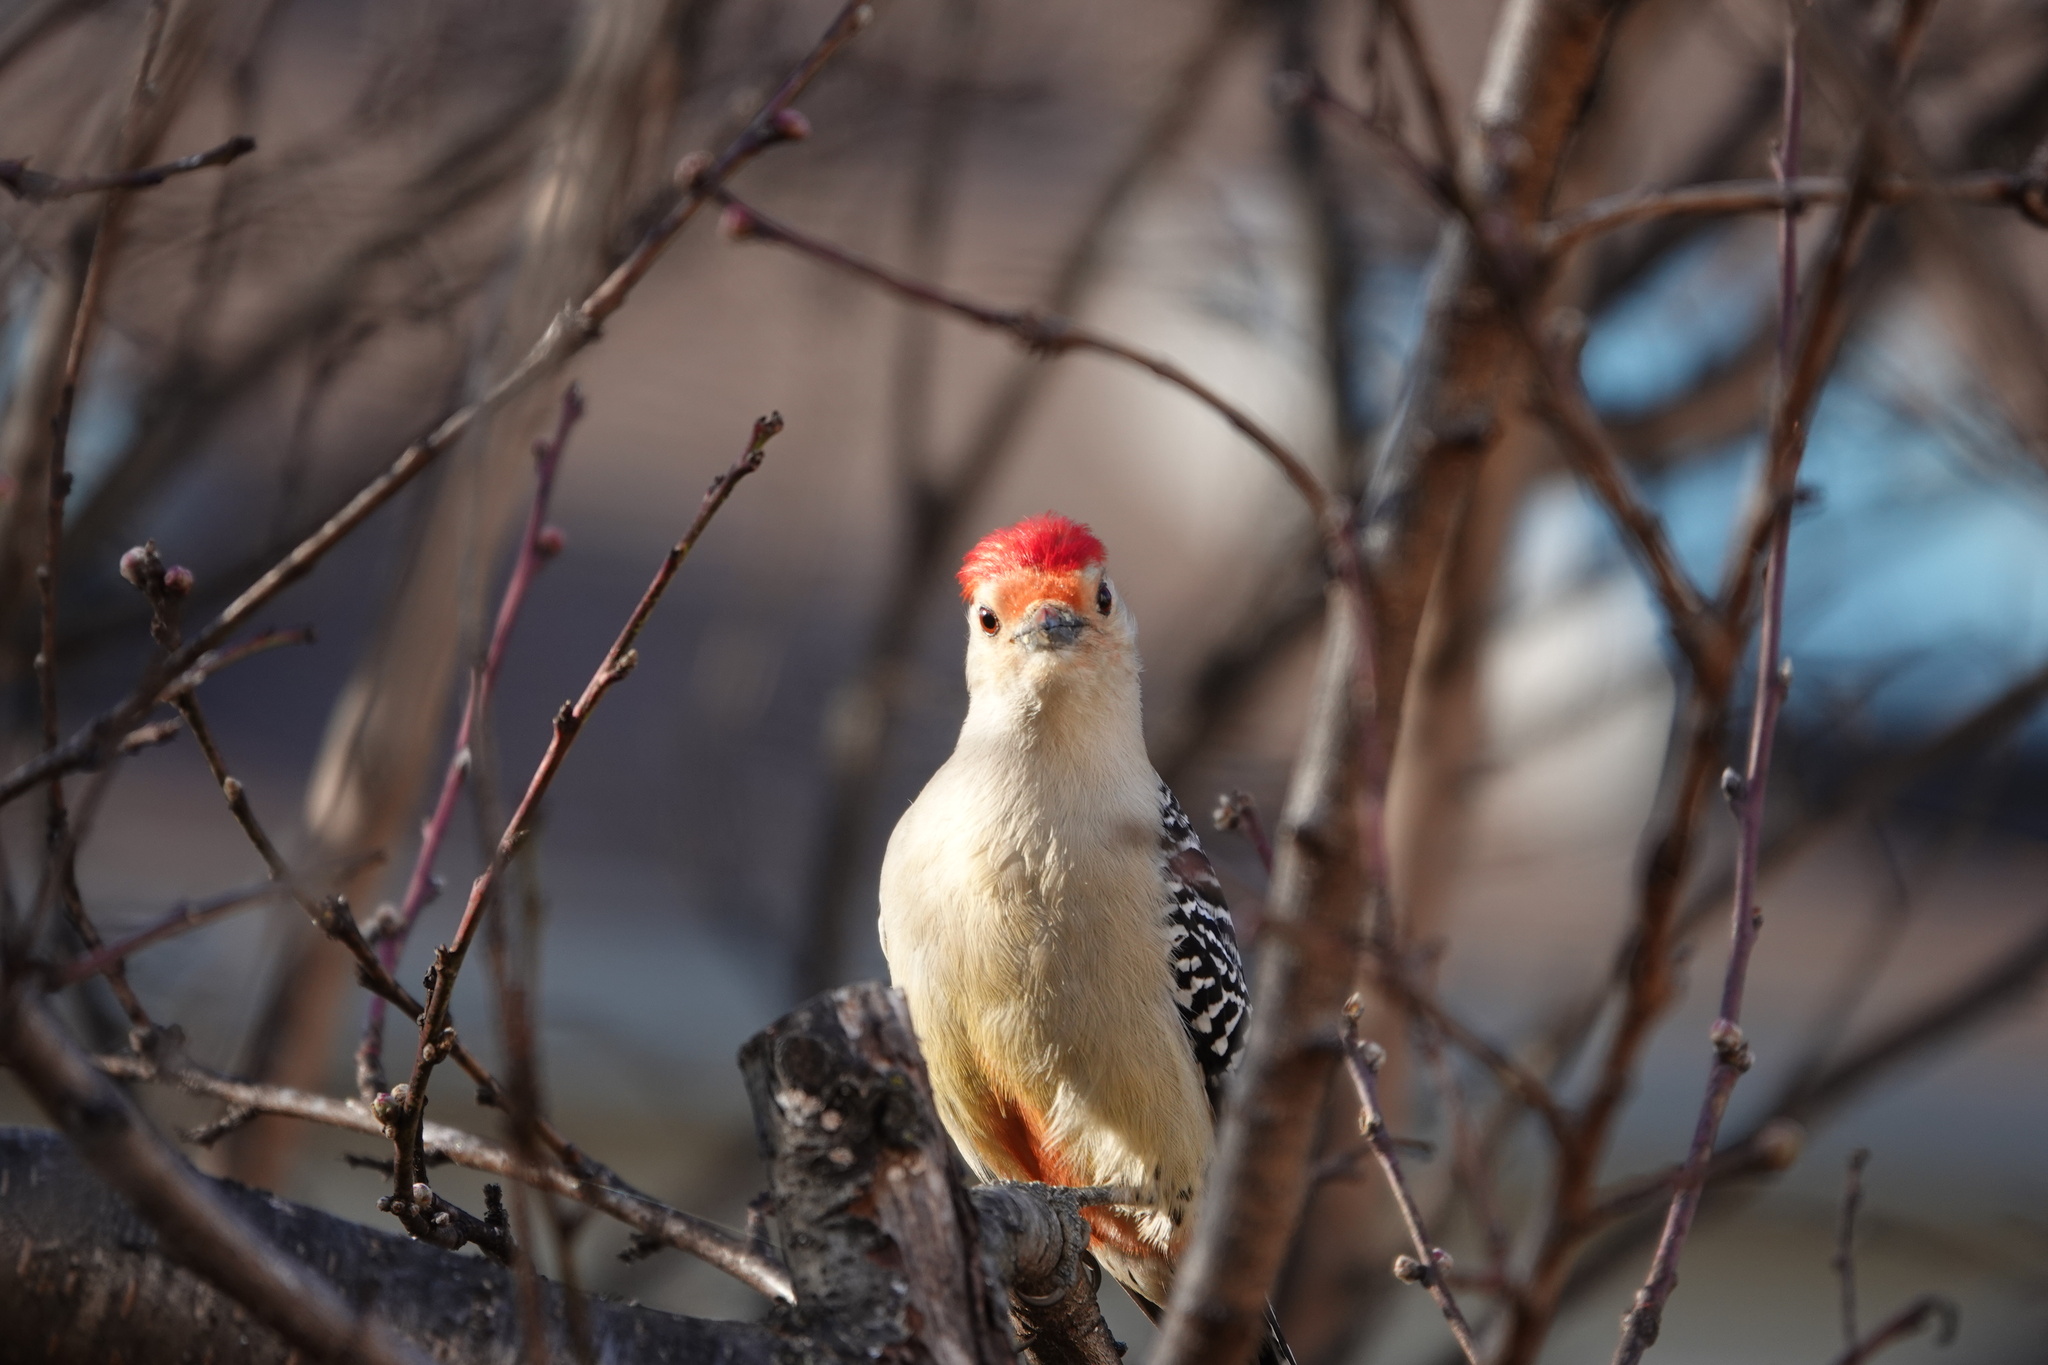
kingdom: Animalia
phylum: Chordata
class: Aves
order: Piciformes
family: Picidae
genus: Melanerpes
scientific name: Melanerpes carolinus
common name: Red-bellied woodpecker
